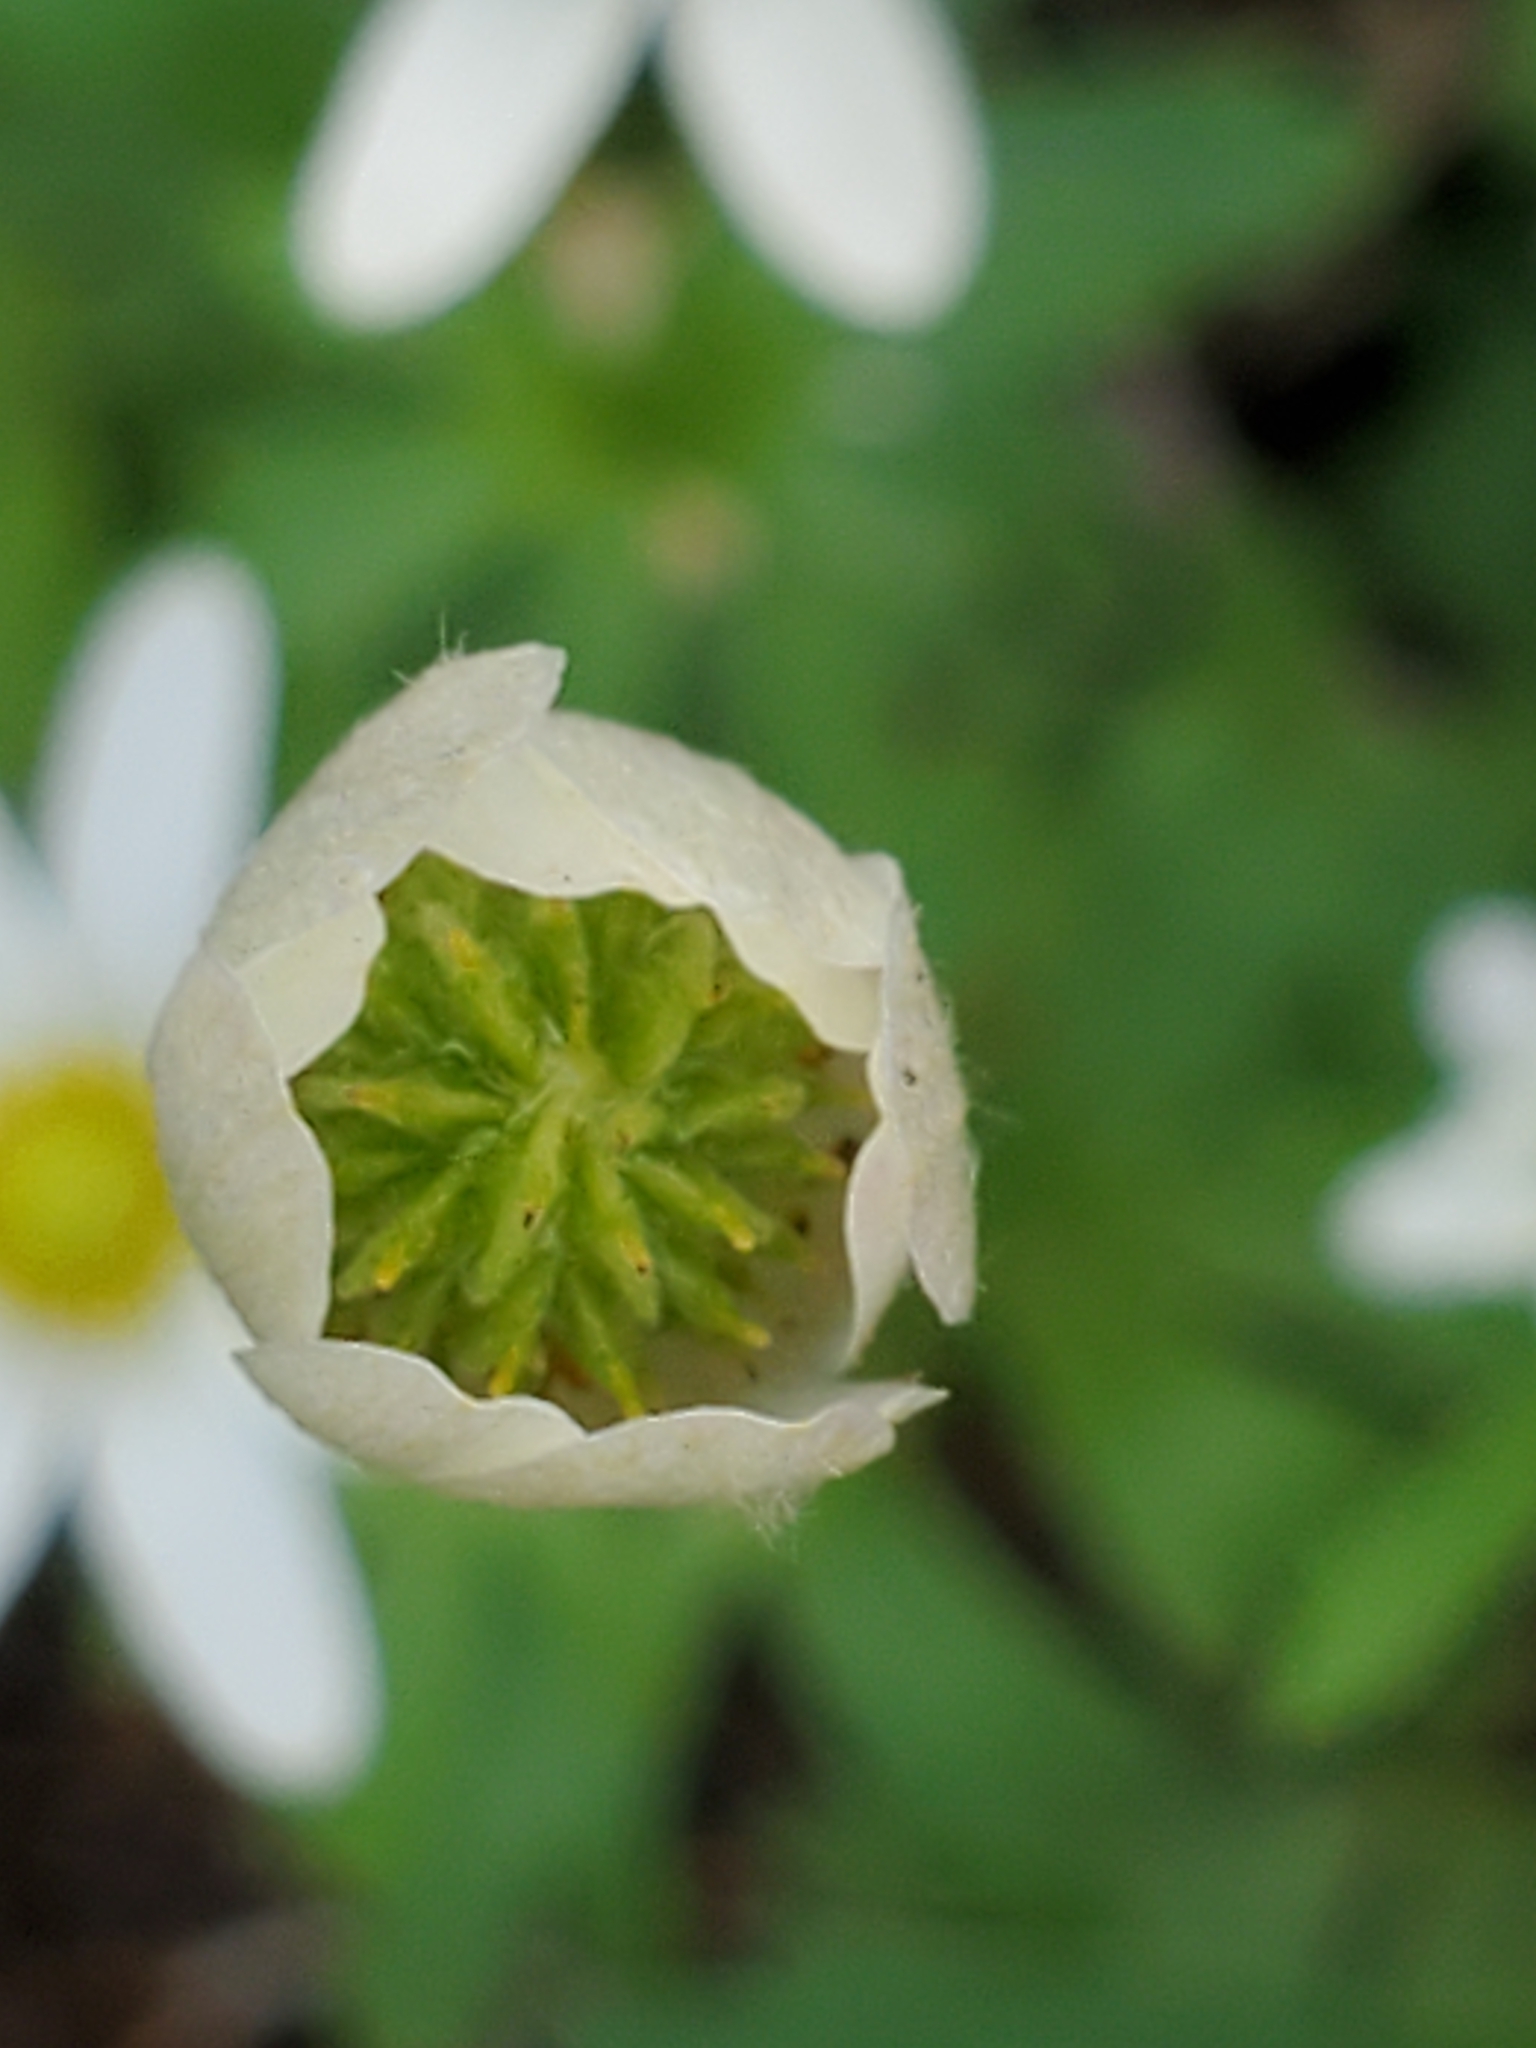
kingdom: Plantae
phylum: Tracheophyta
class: Magnoliopsida
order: Ranunculales
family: Ranunculaceae
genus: Anemone
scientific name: Anemone edwardsiana
